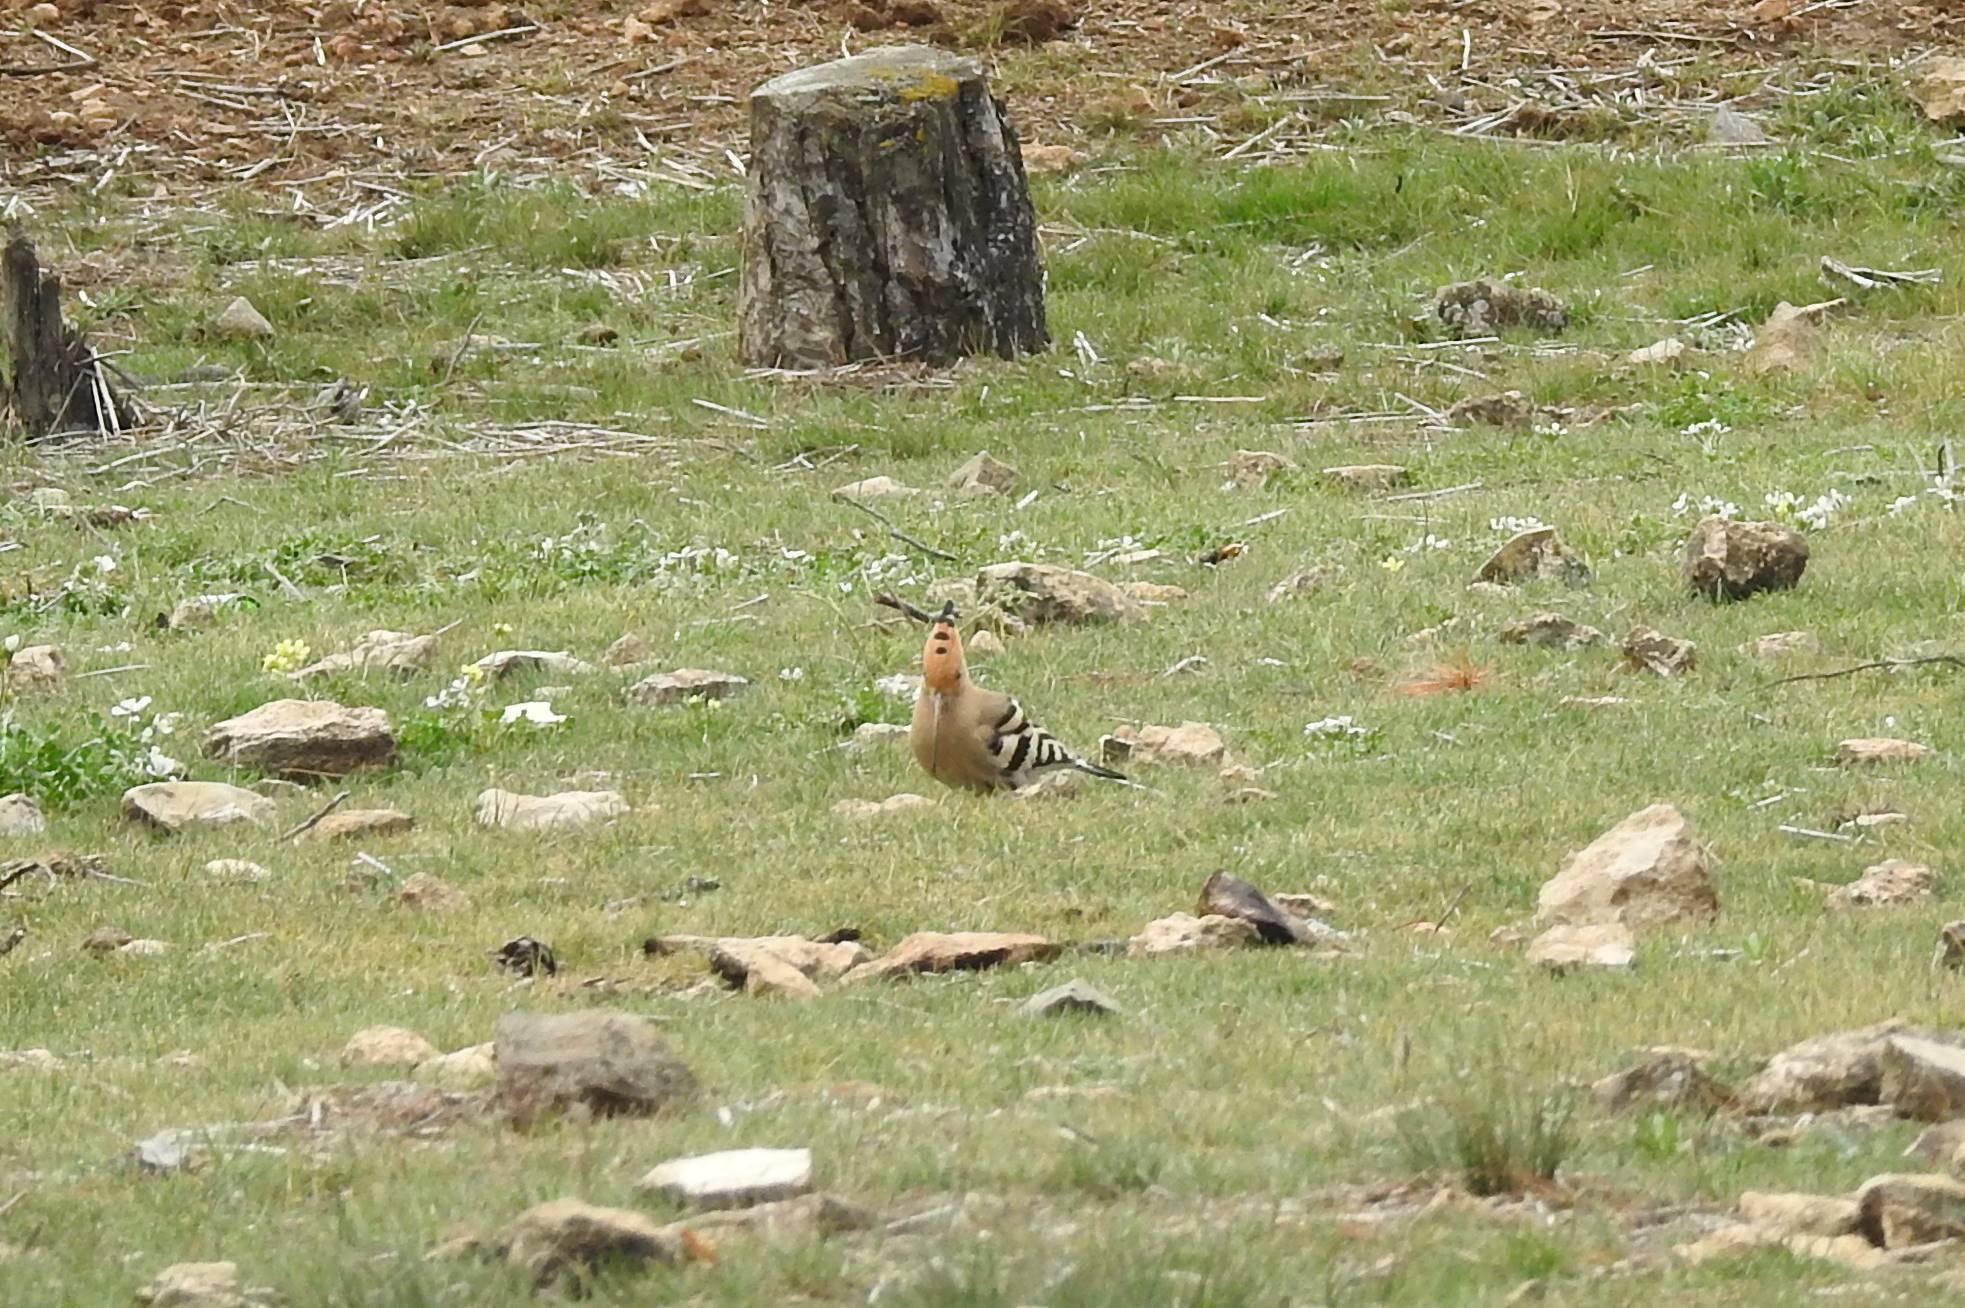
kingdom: Animalia
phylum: Chordata
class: Aves
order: Bucerotiformes
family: Upupidae
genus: Upupa
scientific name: Upupa epops
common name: Eurasian hoopoe
